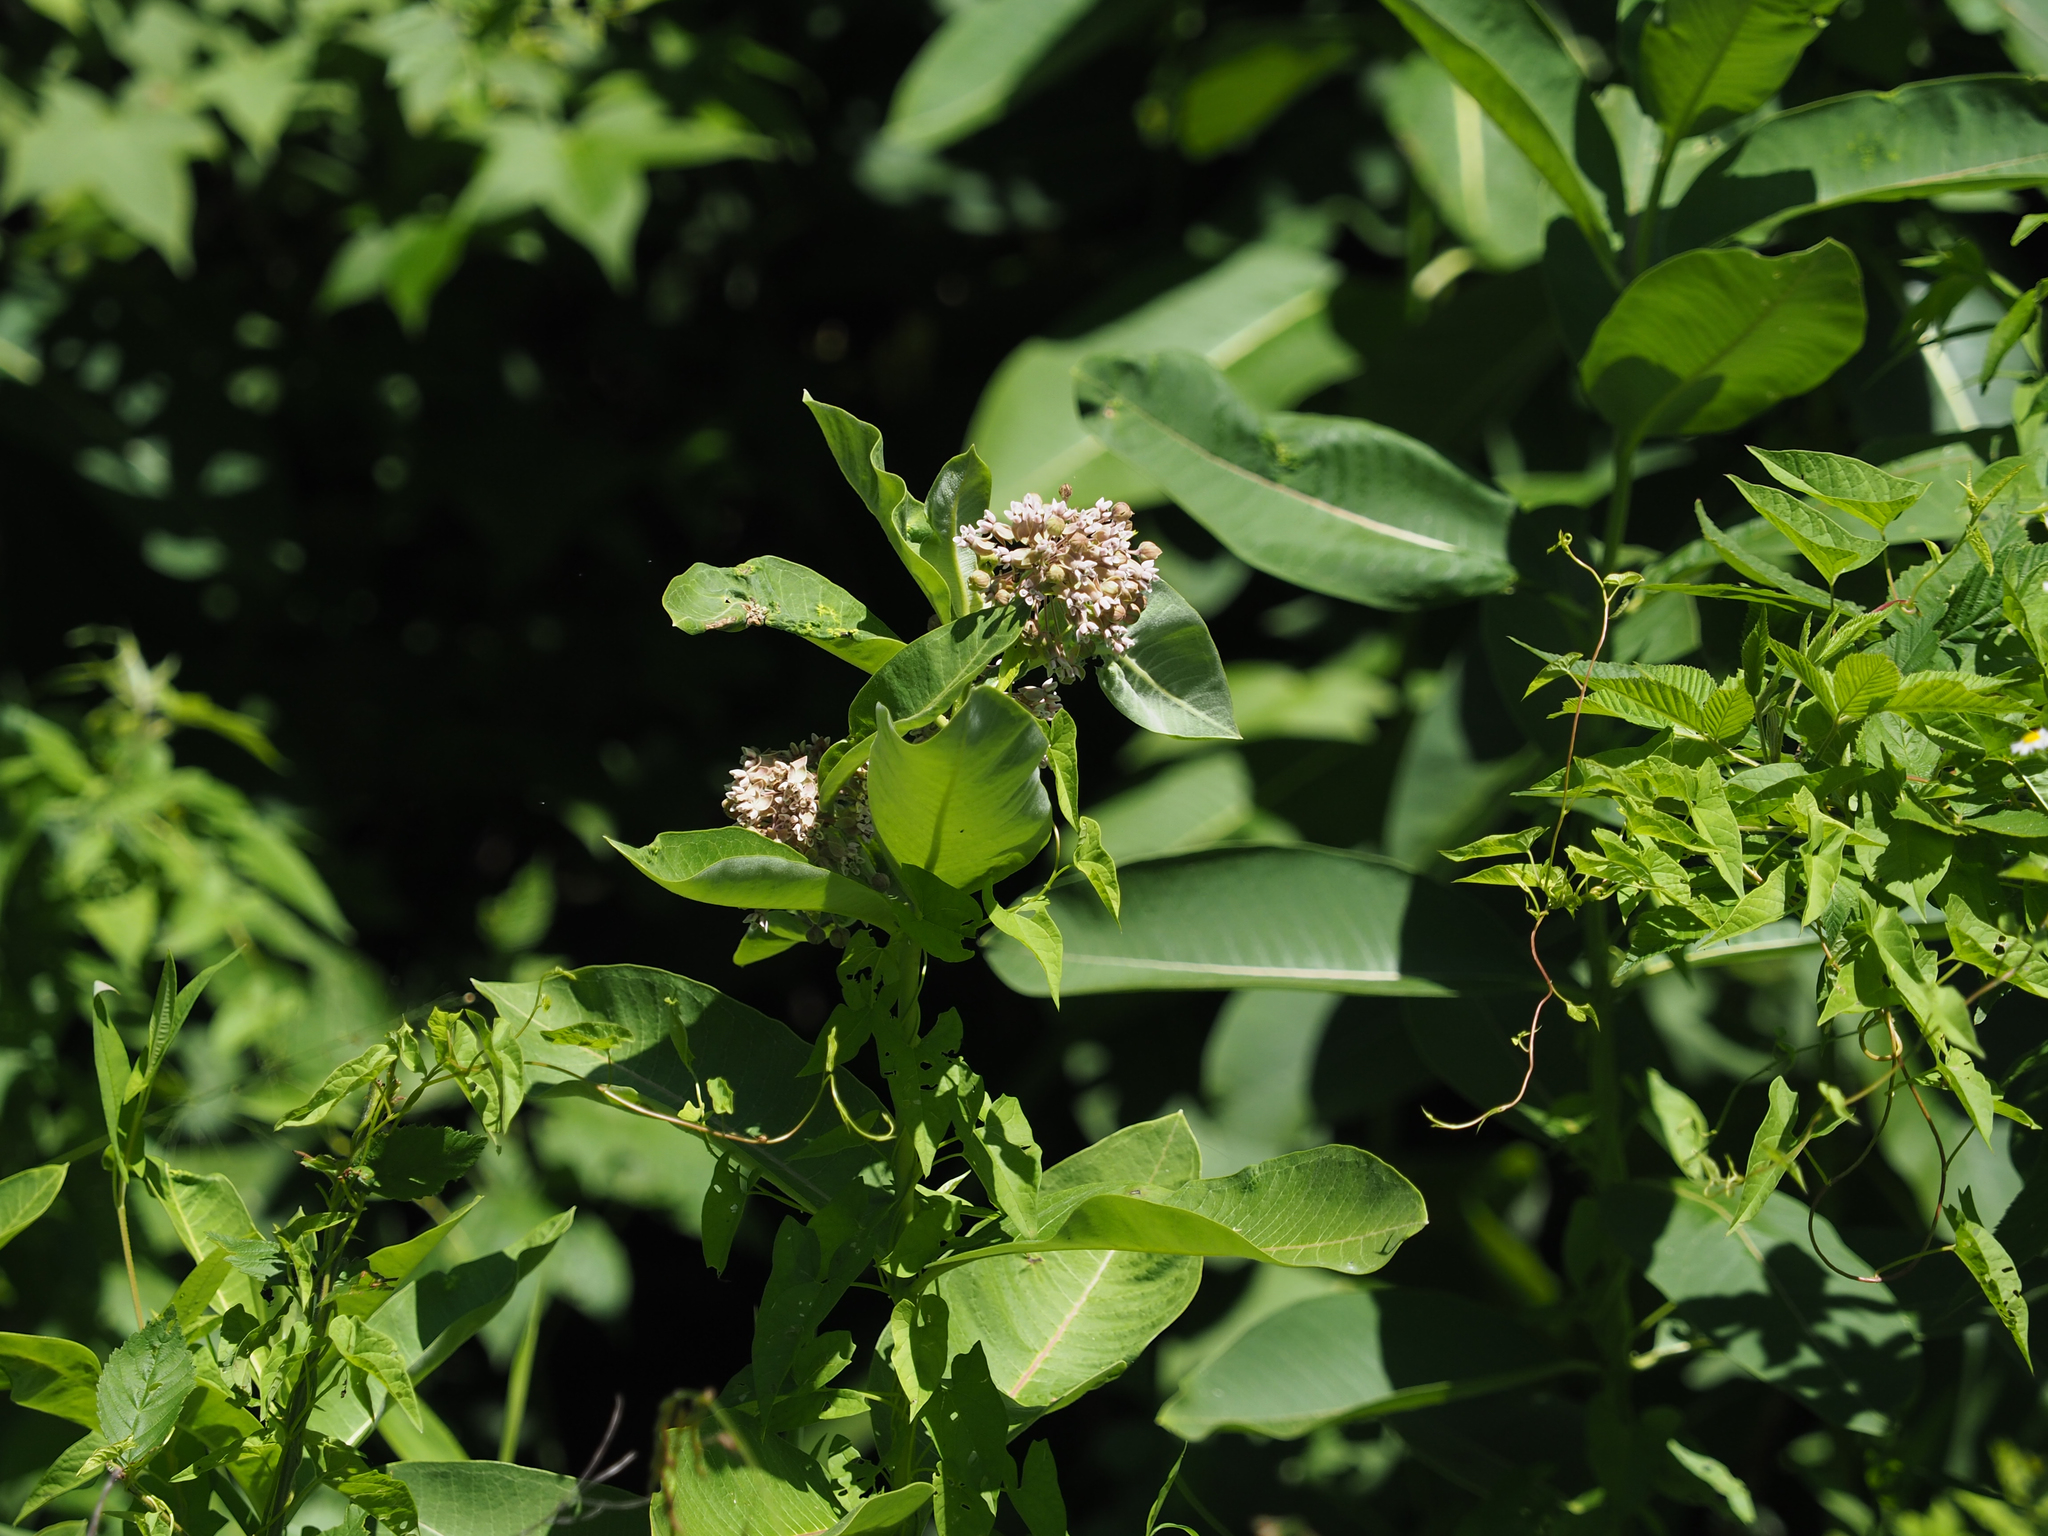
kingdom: Plantae
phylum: Tracheophyta
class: Magnoliopsida
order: Gentianales
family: Apocynaceae
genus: Asclepias
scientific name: Asclepias syriaca
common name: Common milkweed
